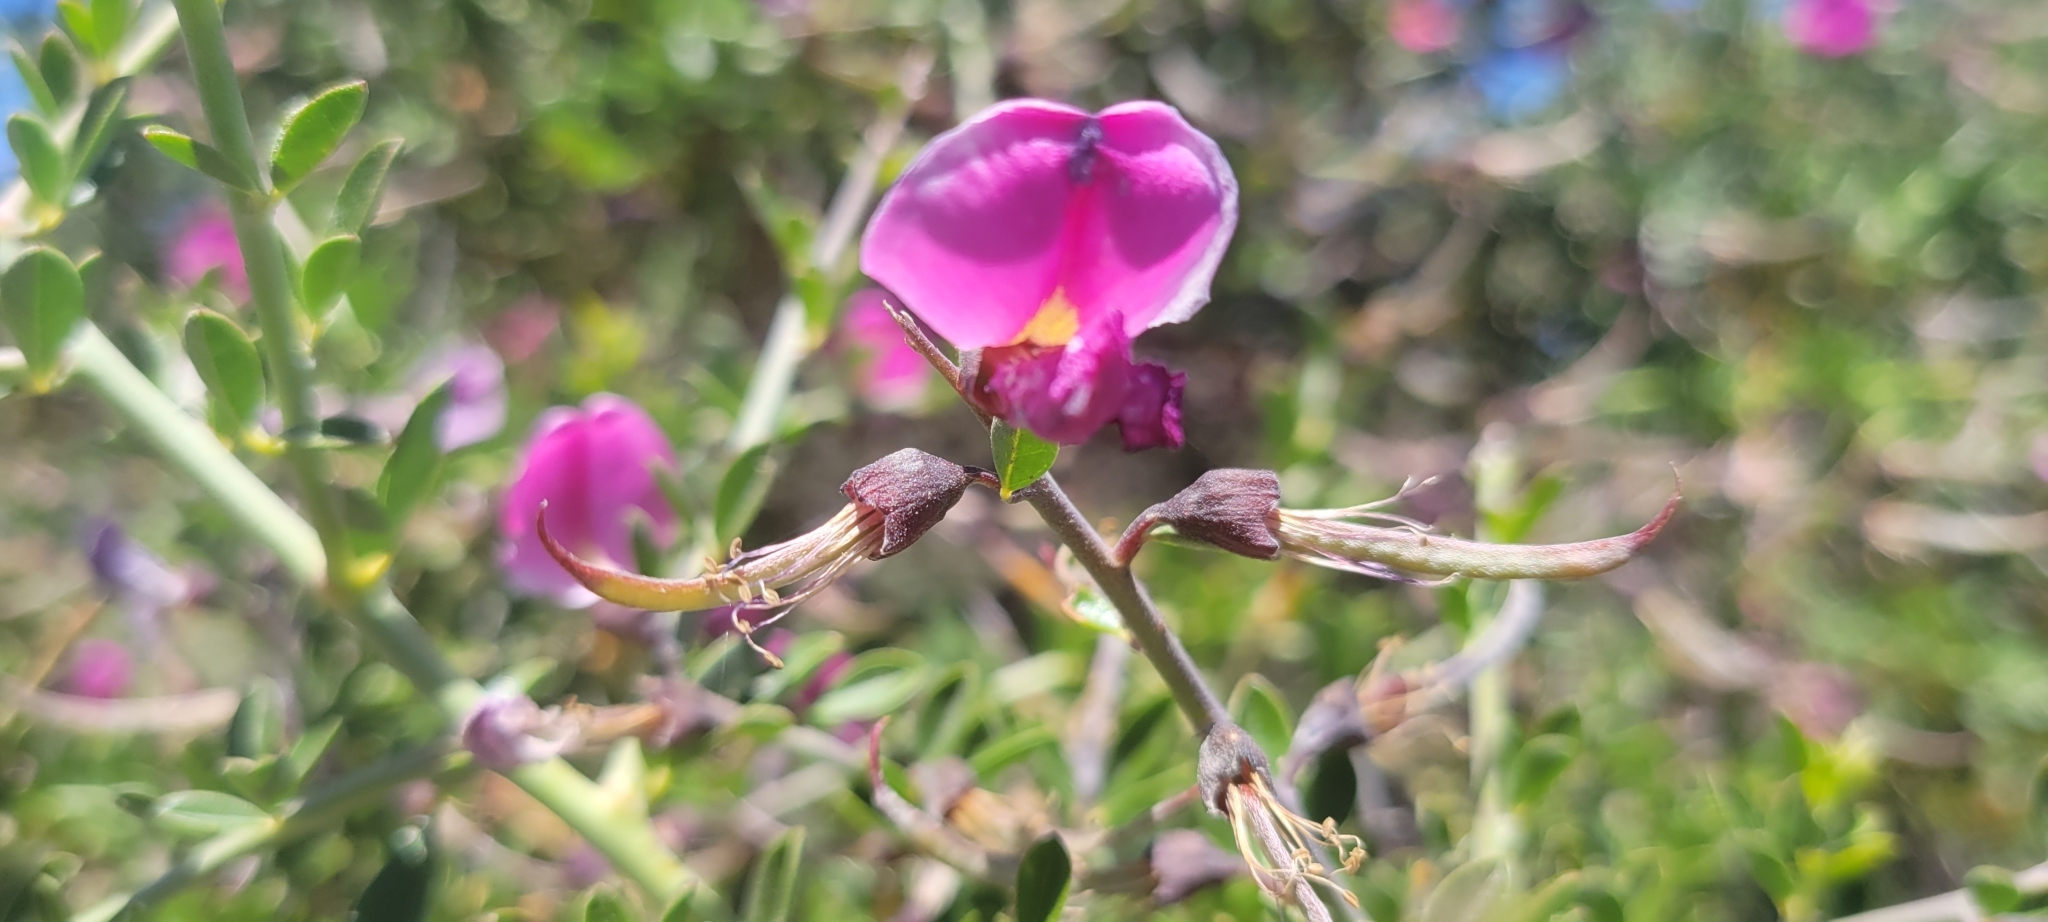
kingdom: Plantae
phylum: Tracheophyta
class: Magnoliopsida
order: Fabales
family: Fabaceae
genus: Pickeringia
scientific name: Pickeringia montana
